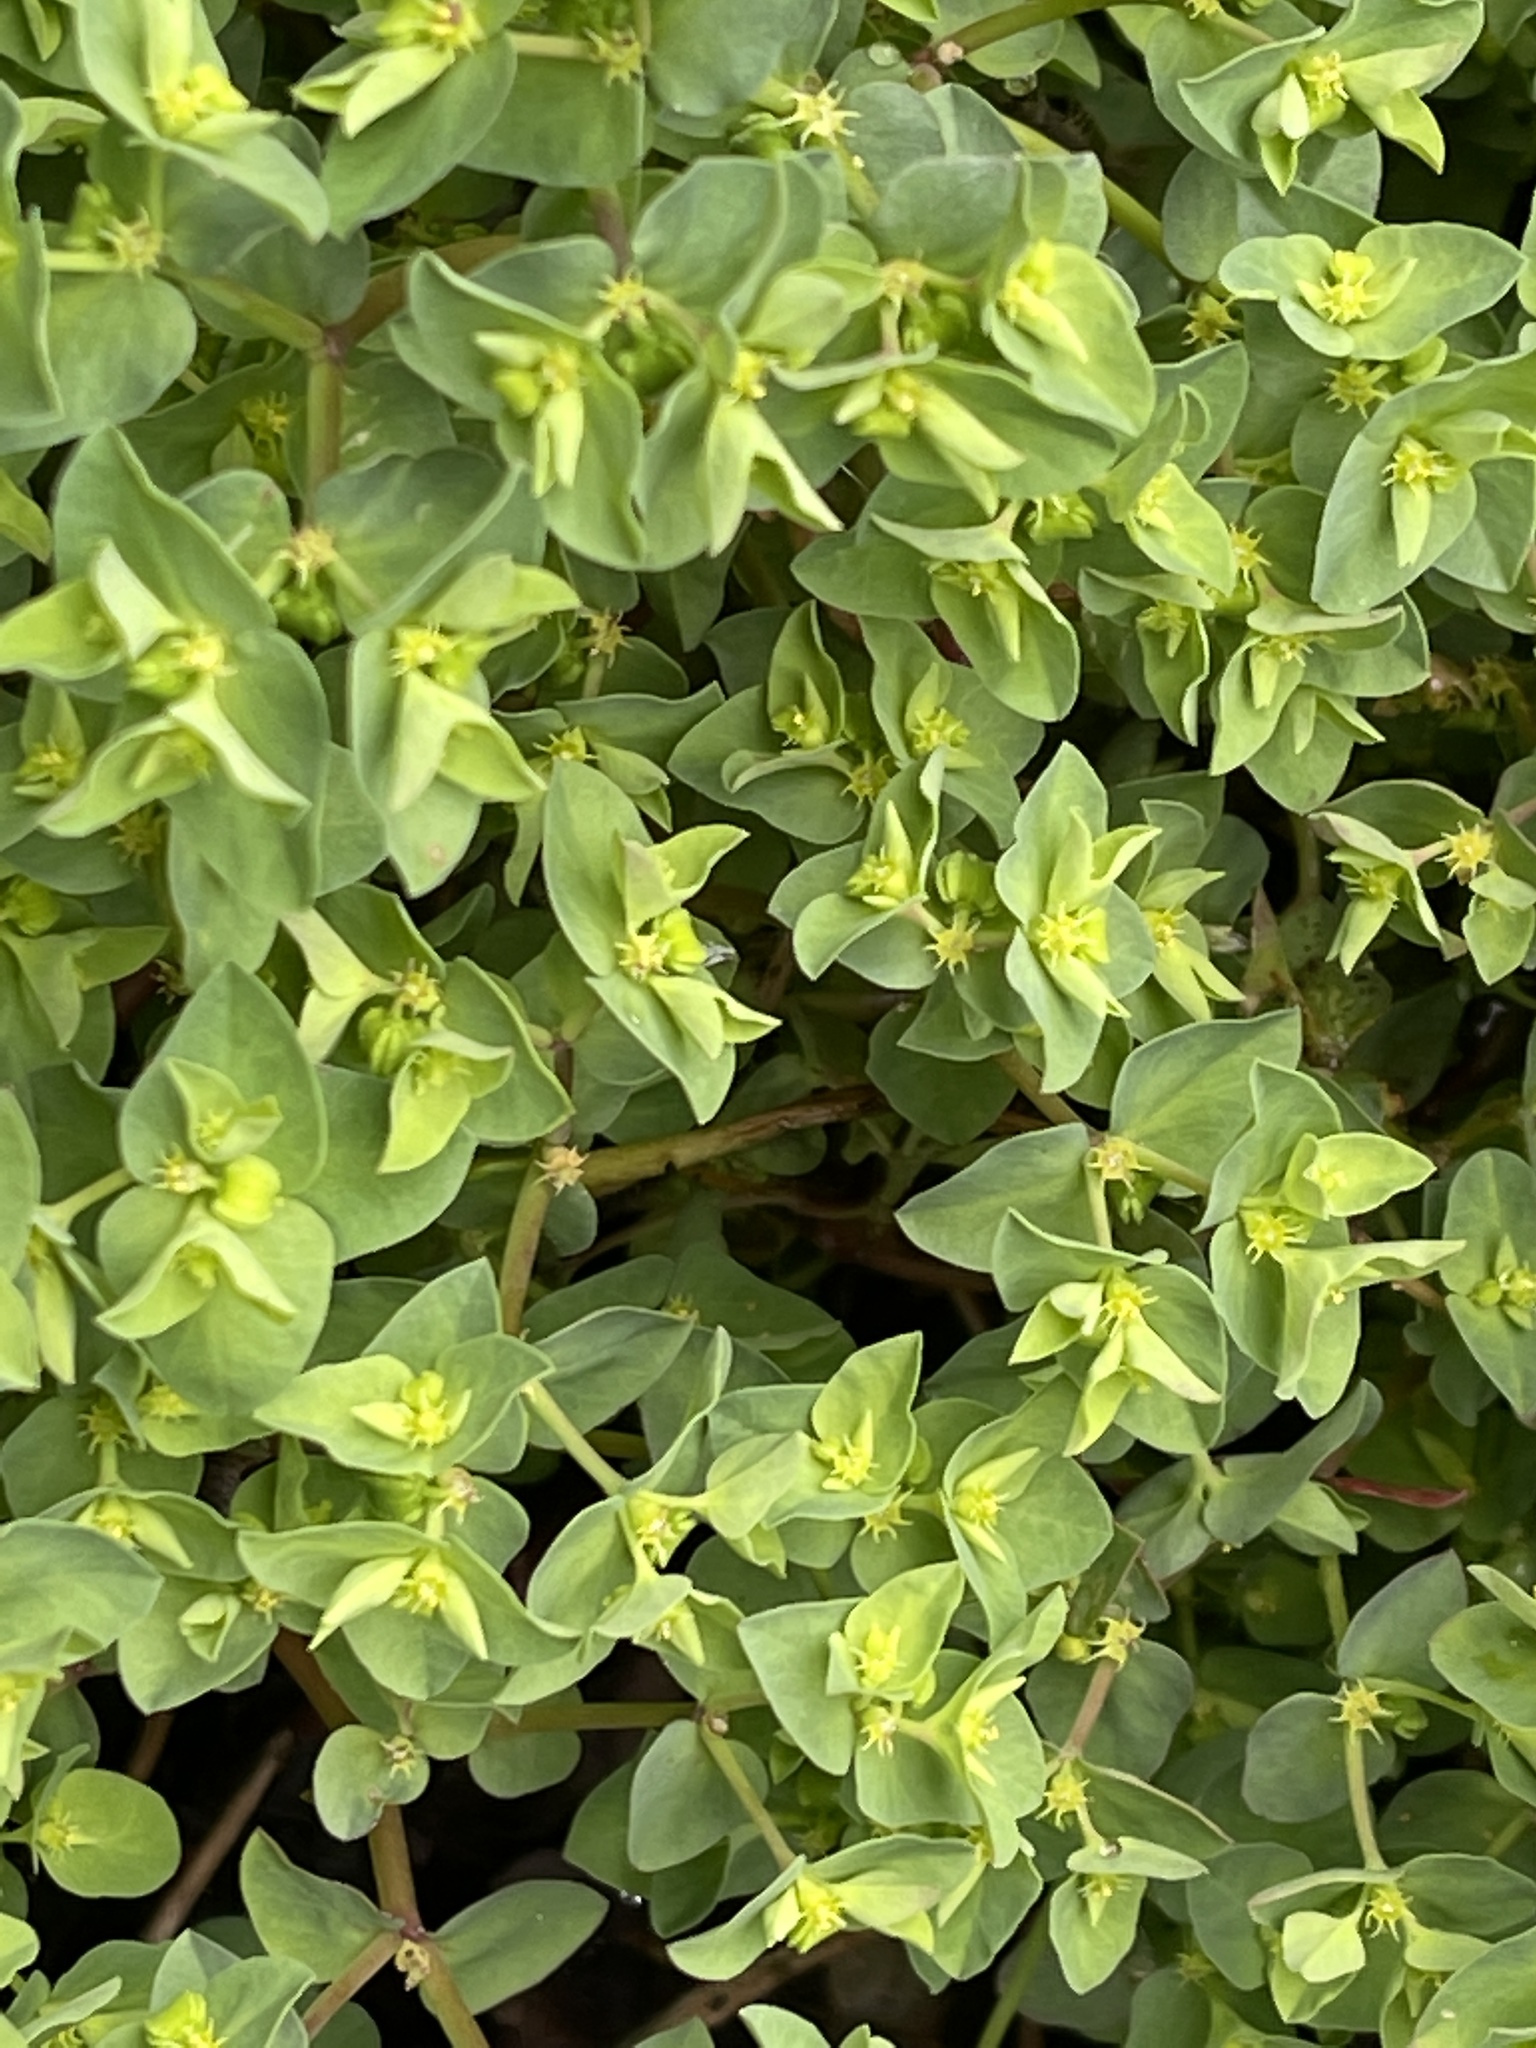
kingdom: Plantae
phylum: Tracheophyta
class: Magnoliopsida
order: Malpighiales
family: Euphorbiaceae
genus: Euphorbia
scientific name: Euphorbia peplus
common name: Petty spurge
